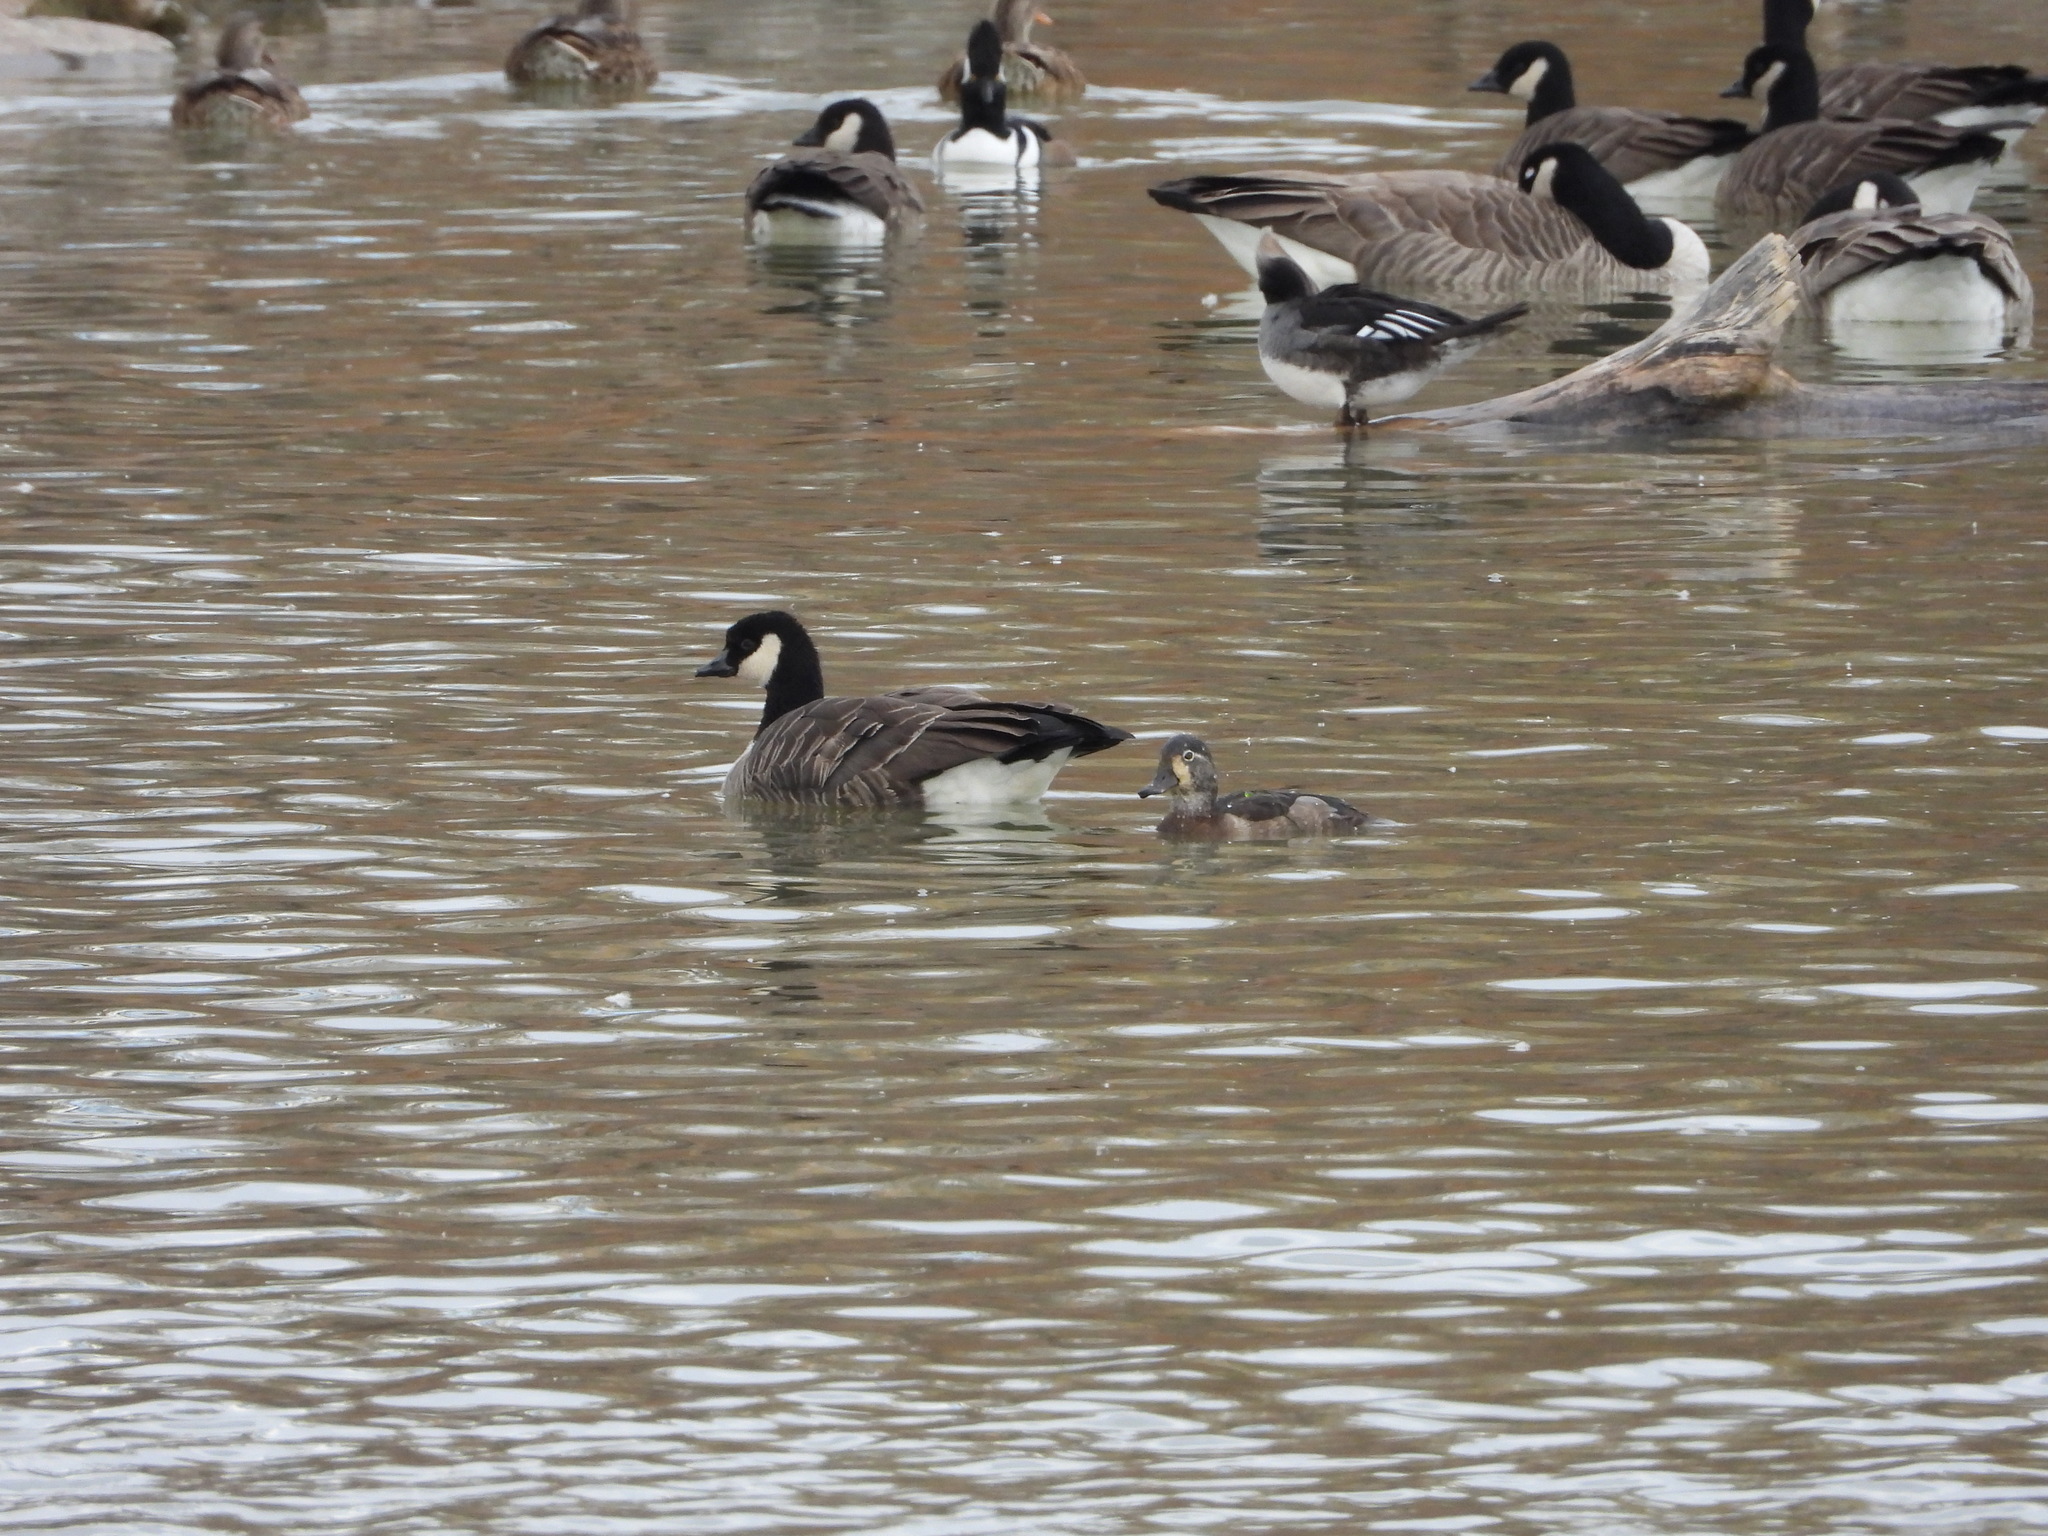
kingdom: Animalia
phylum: Chordata
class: Aves
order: Anseriformes
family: Anatidae
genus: Branta
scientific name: Branta hutchinsii
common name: Cackling goose
